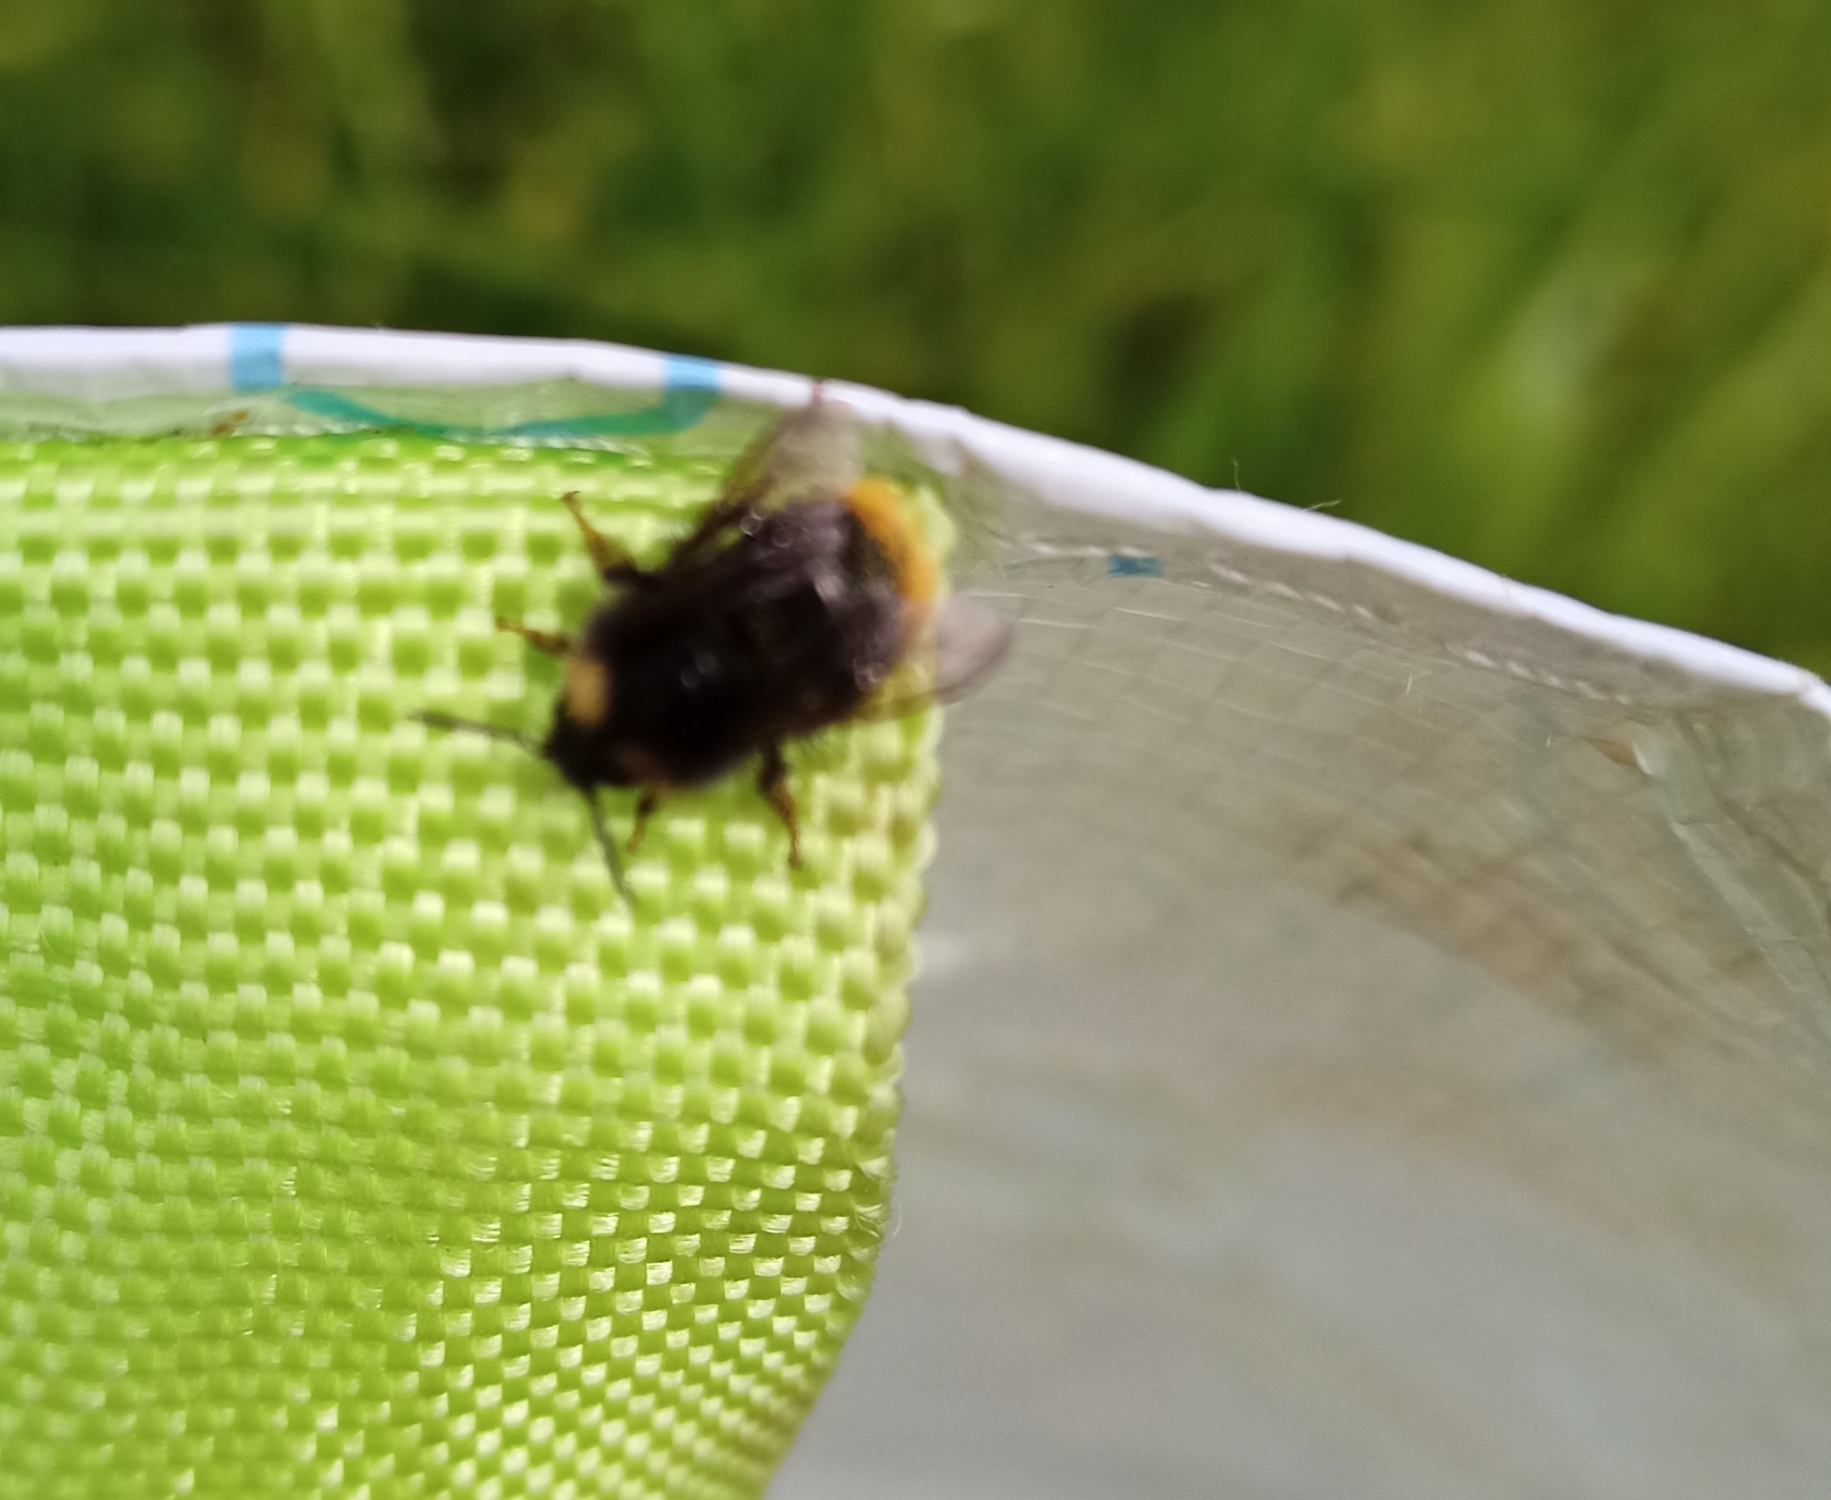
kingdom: Animalia
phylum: Arthropoda
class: Insecta
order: Hymenoptera
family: Apidae
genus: Bombus
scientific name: Bombus pratorum
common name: Early humble-bee
